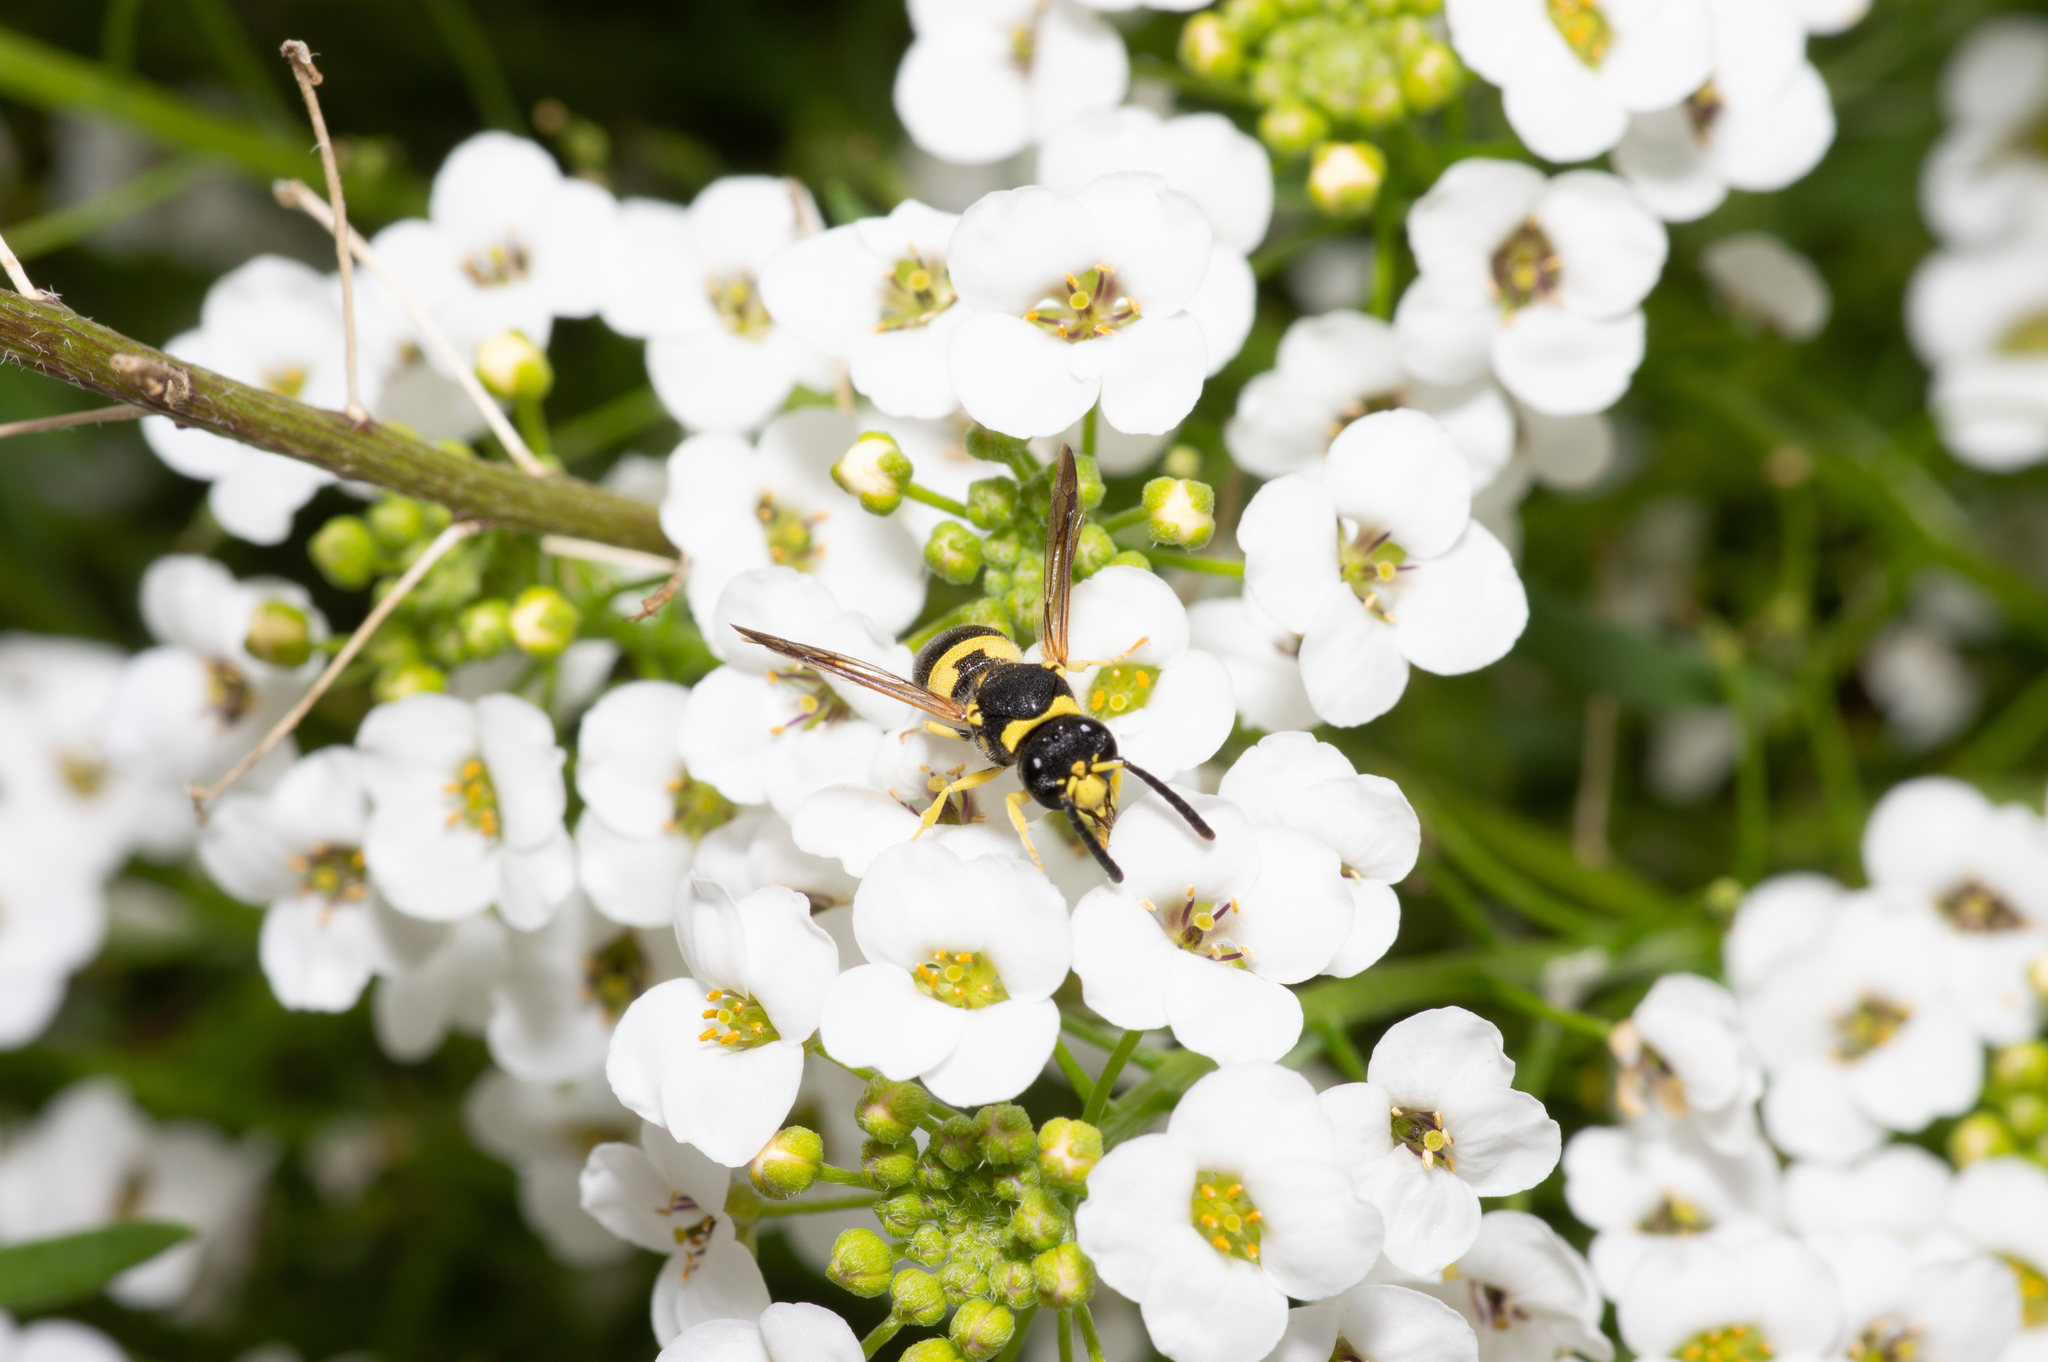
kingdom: Animalia
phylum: Arthropoda
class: Insecta
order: Hymenoptera
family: Vespidae
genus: Ancistrocerus
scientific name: Ancistrocerus gazella
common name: European tube wasp
